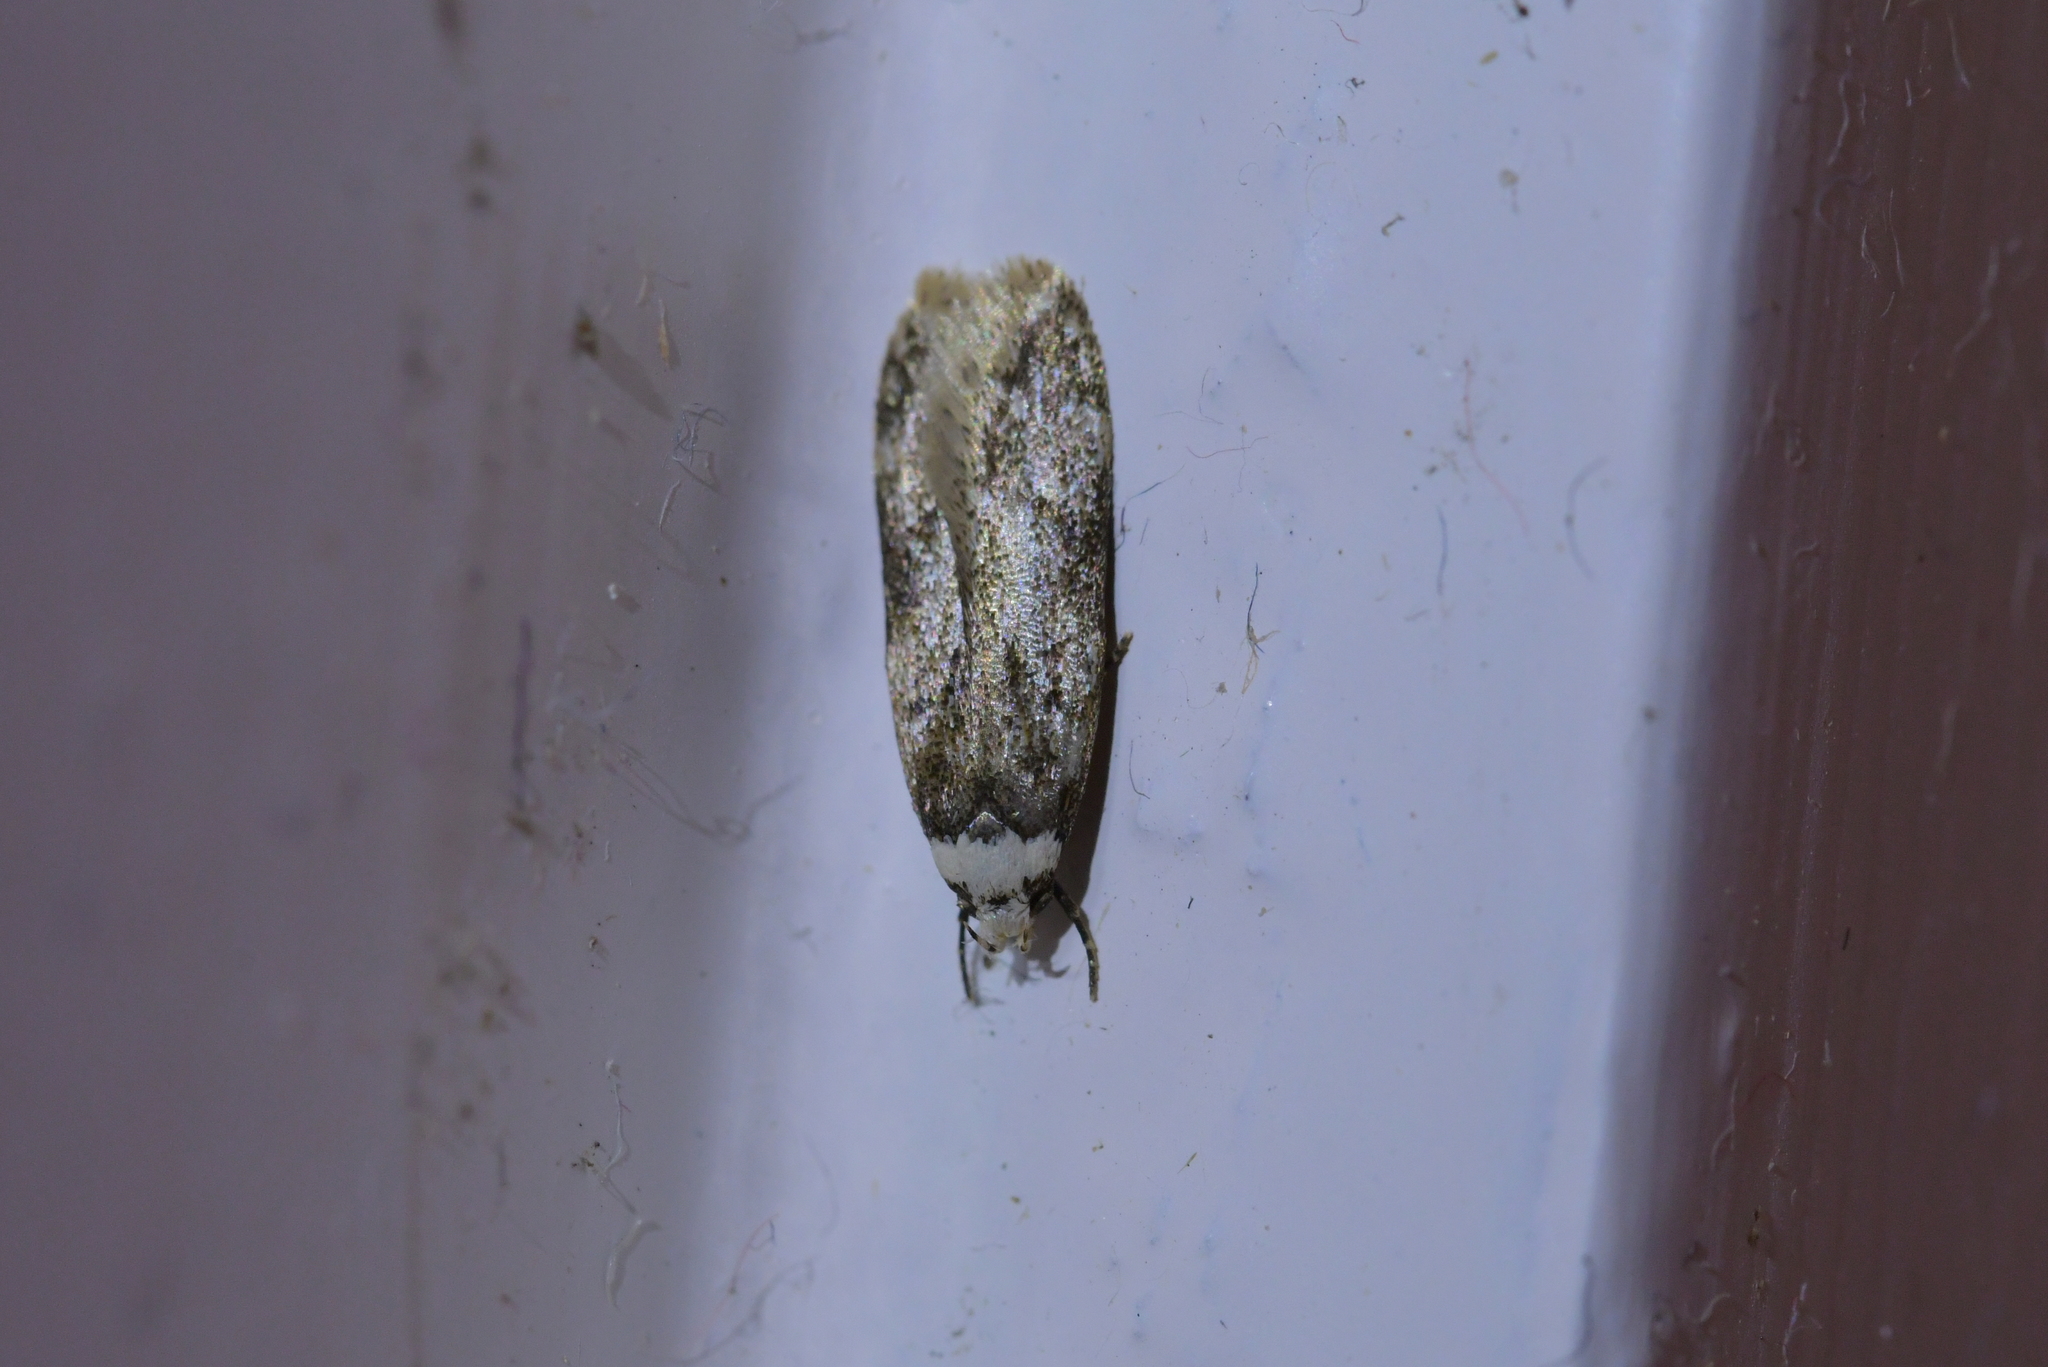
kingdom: Animalia
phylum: Arthropoda
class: Insecta
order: Lepidoptera
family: Oecophoridae
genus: Endrosis
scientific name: Endrosis sarcitrella
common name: White-shouldered house moth
